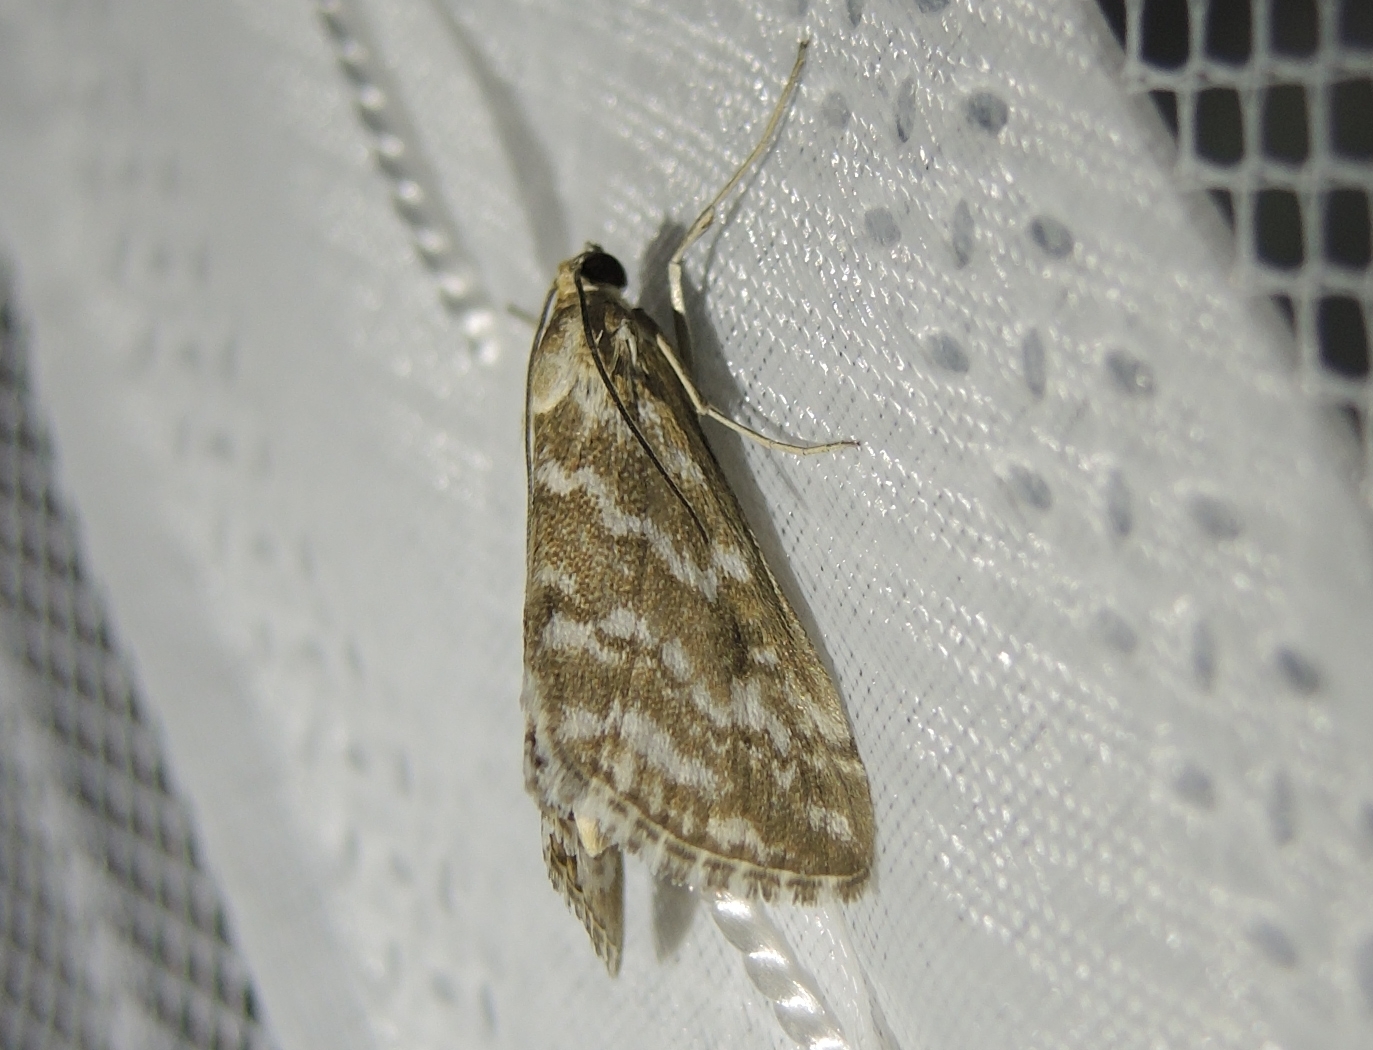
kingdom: Animalia
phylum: Arthropoda
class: Insecta
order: Lepidoptera
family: Crambidae
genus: Evergestis
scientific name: Evergestis frumentalis
